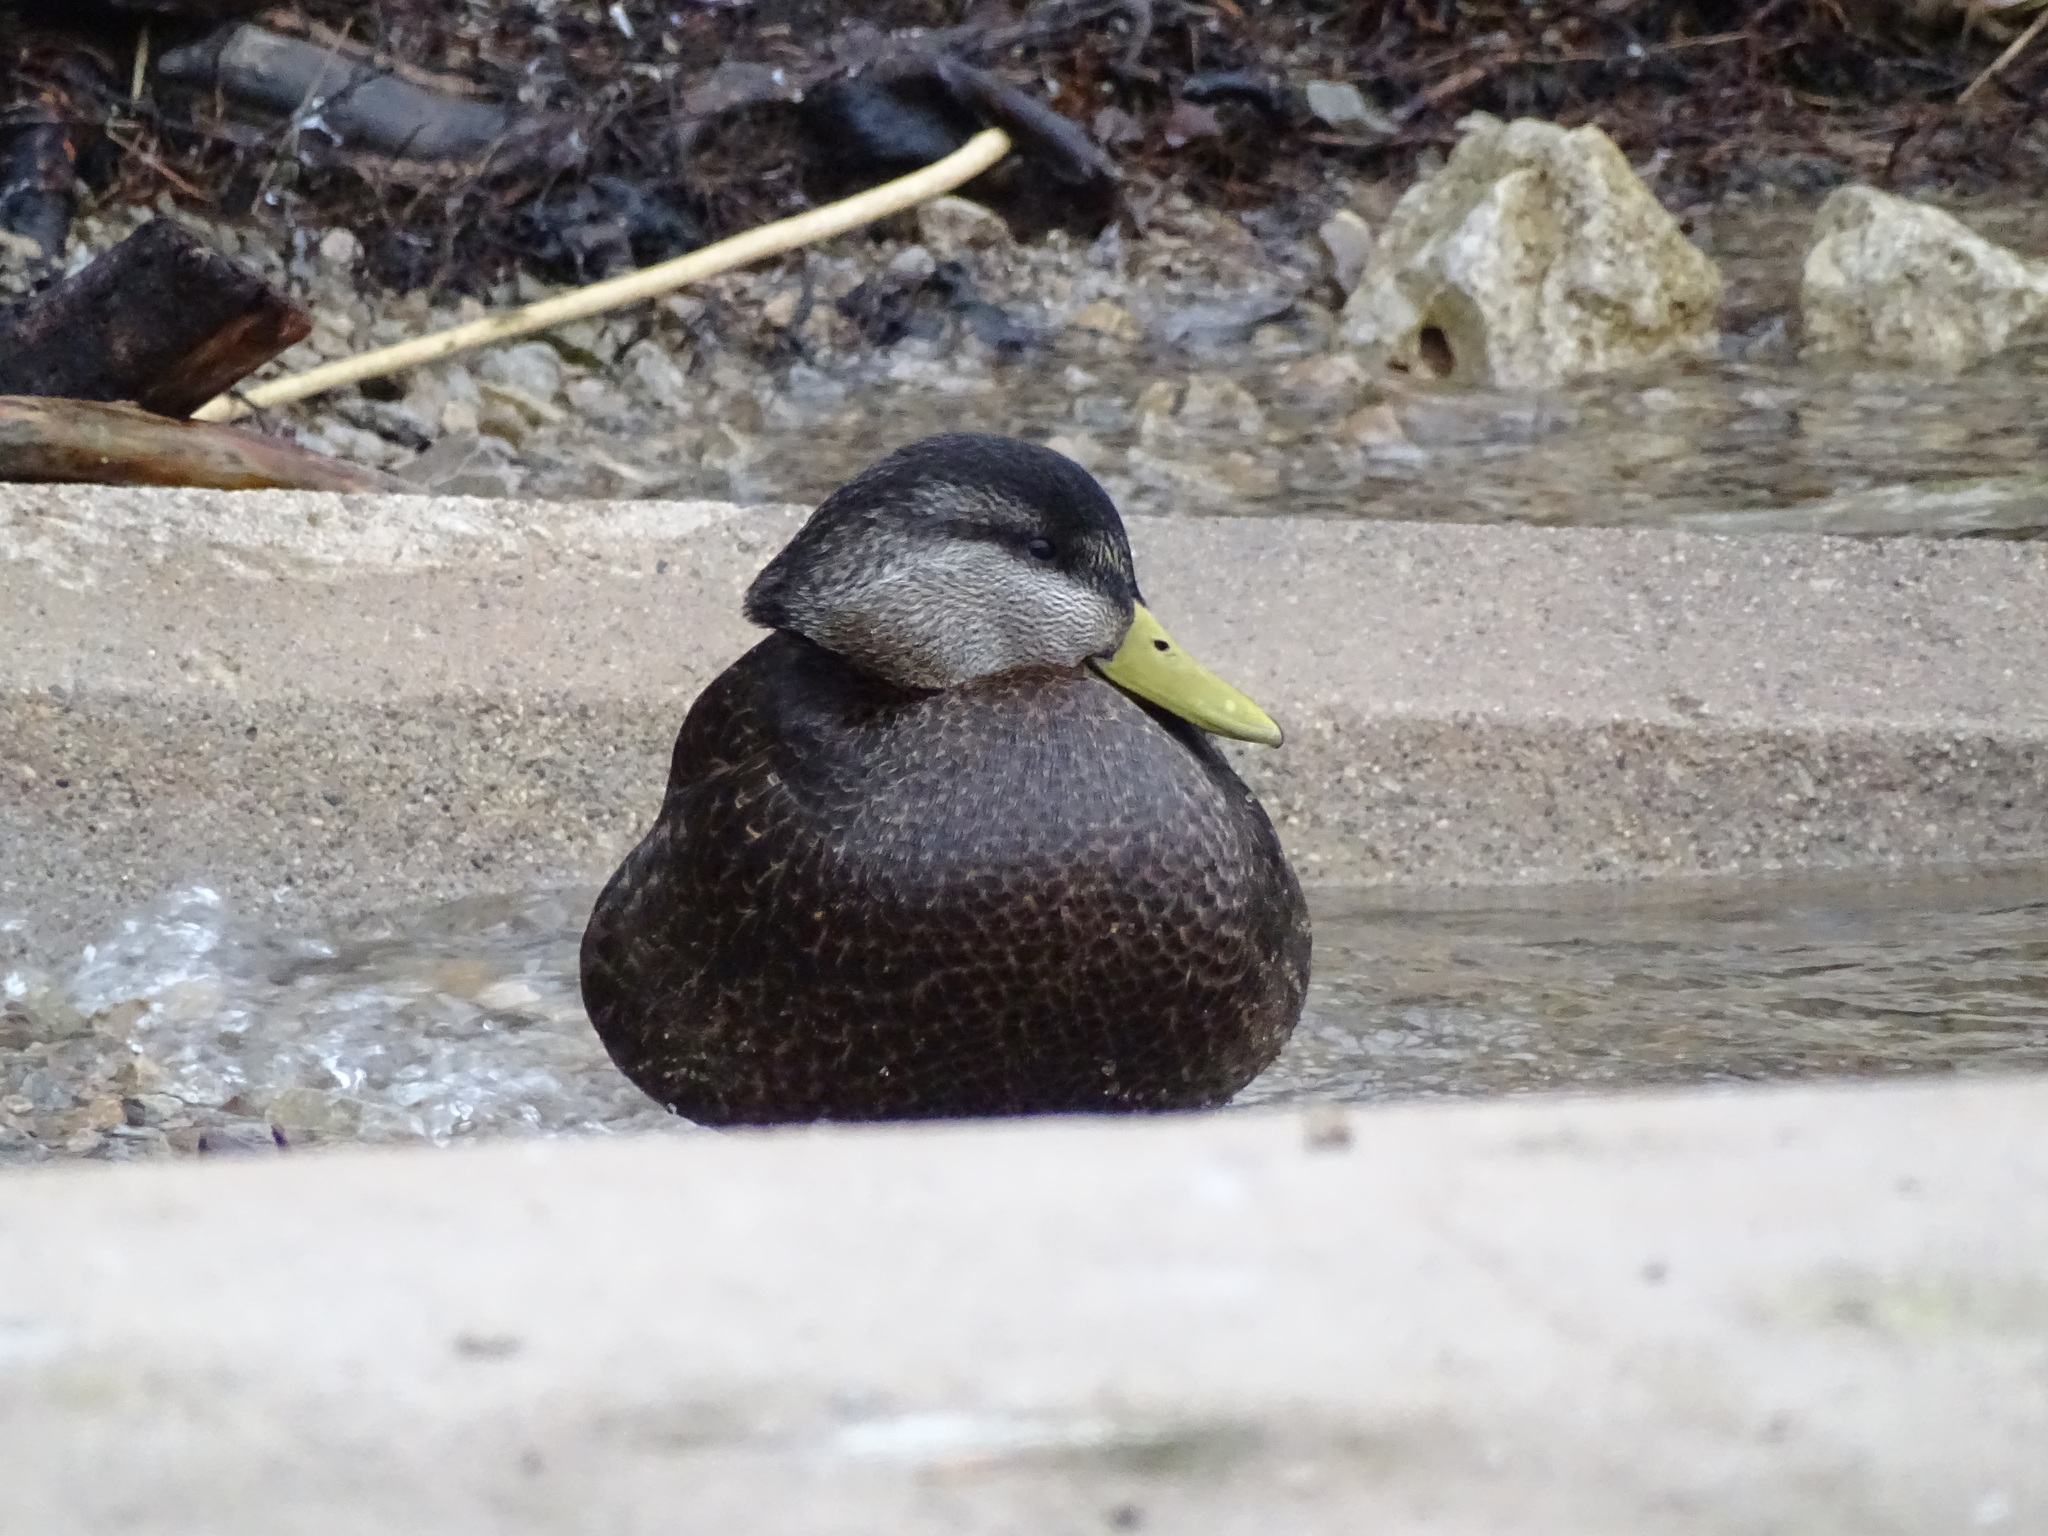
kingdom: Animalia
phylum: Chordata
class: Aves
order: Anseriformes
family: Anatidae
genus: Anas
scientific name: Anas rubripes
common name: American black duck
